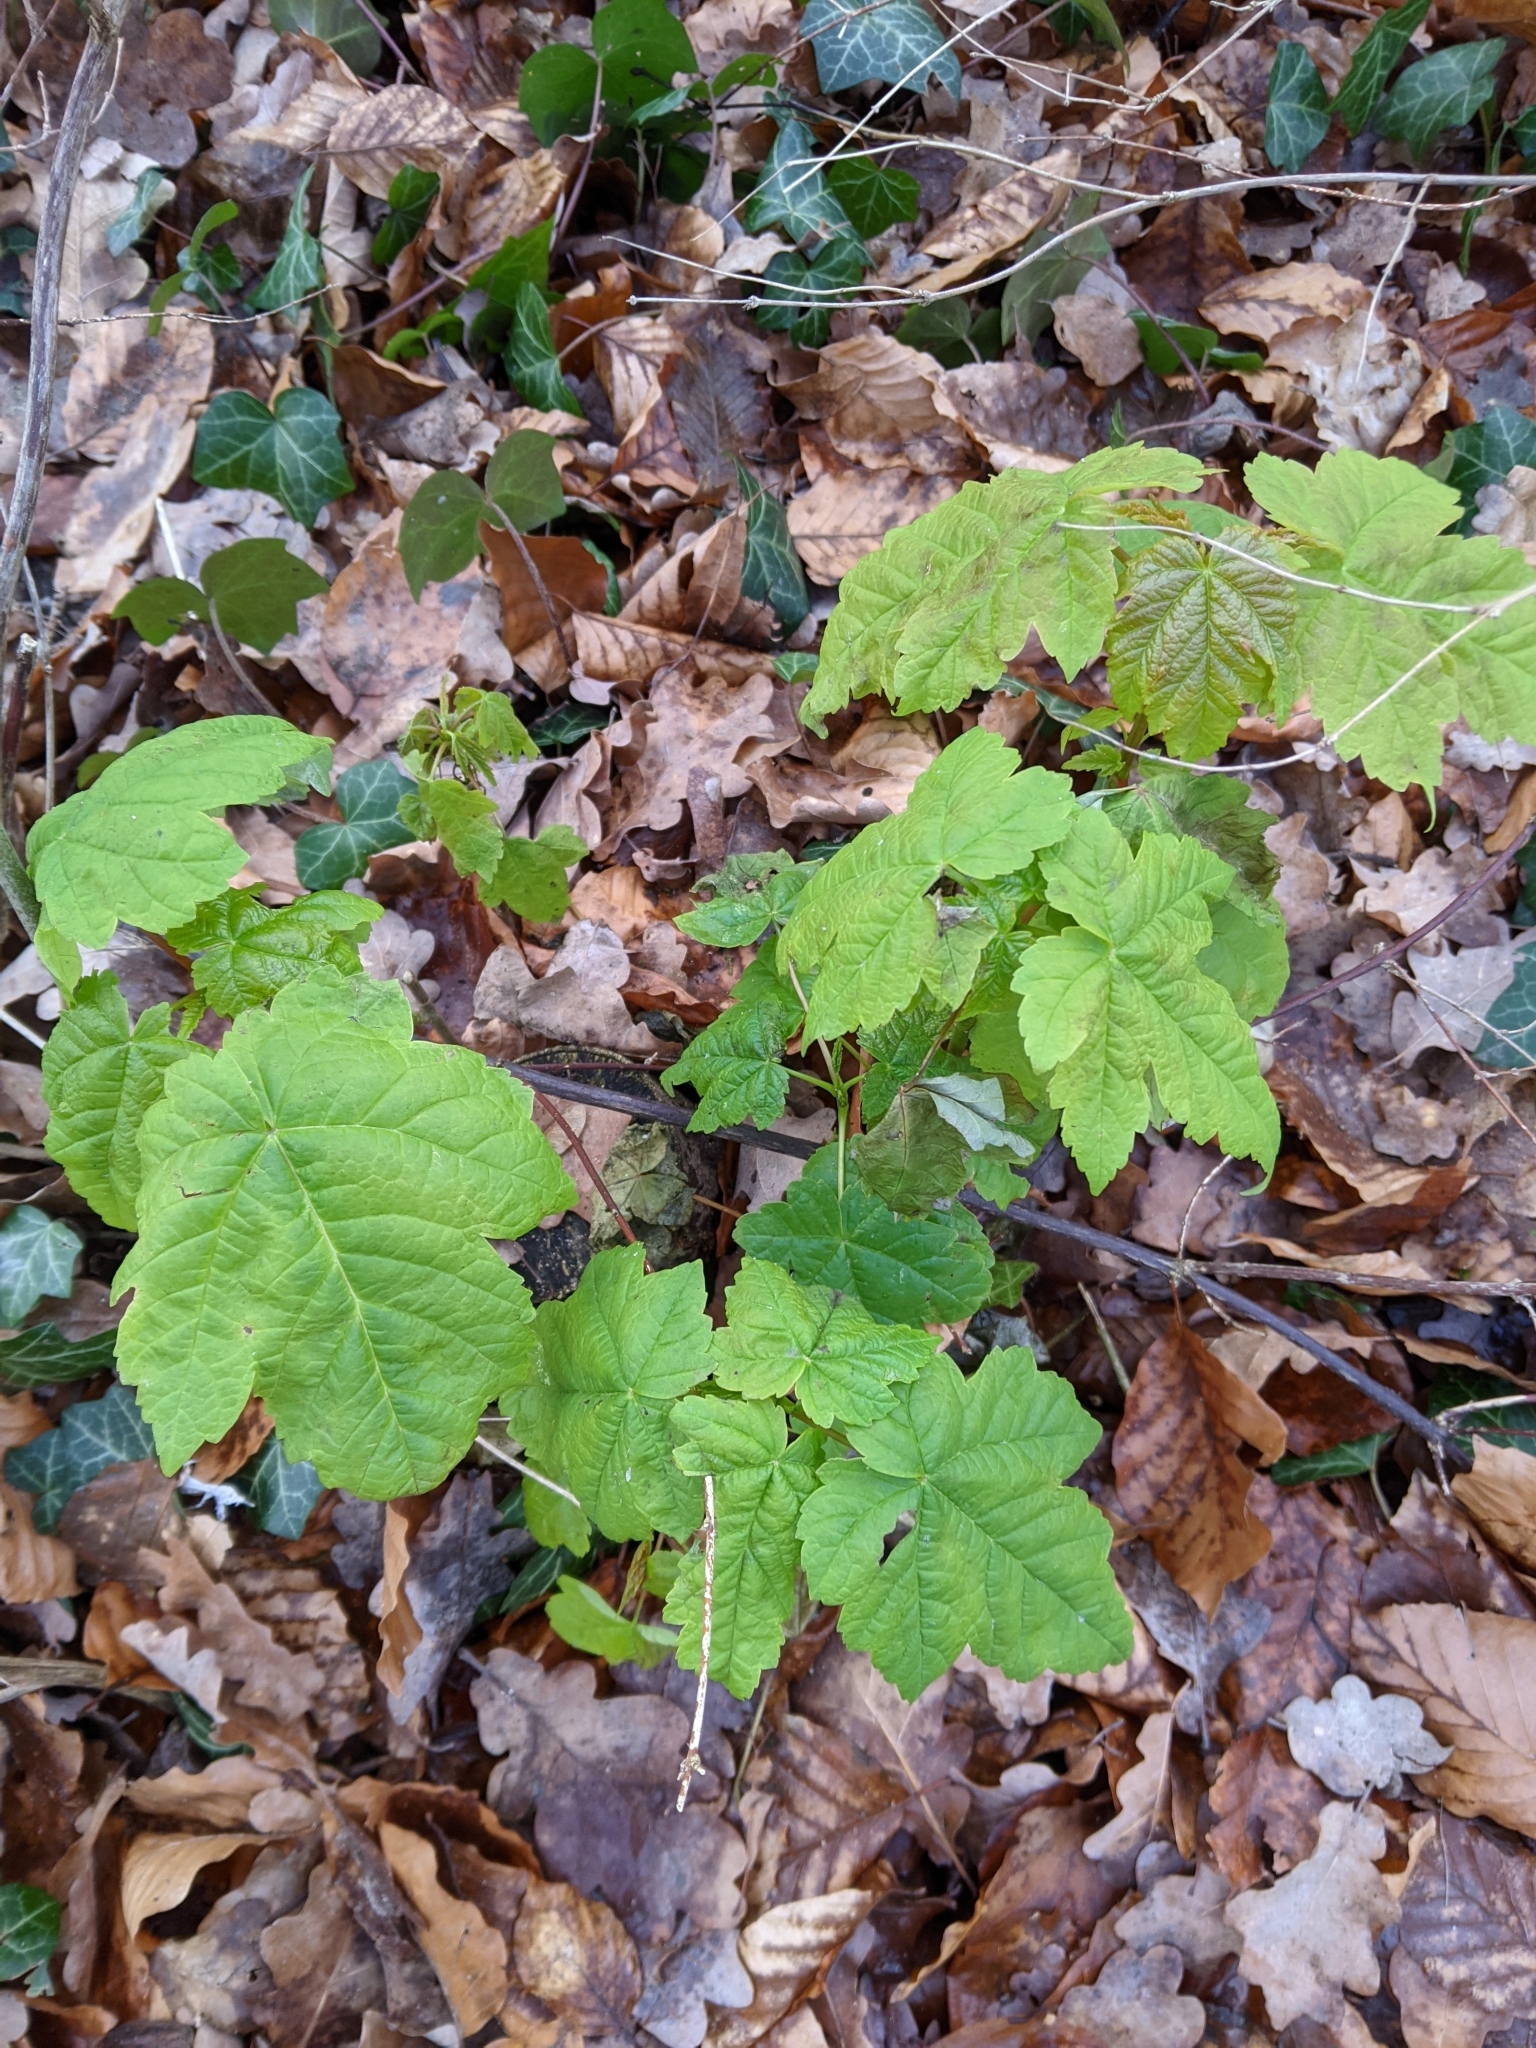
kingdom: Plantae
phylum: Tracheophyta
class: Magnoliopsida
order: Sapindales
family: Sapindaceae
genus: Acer
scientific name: Acer pseudoplatanus
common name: Sycamore
